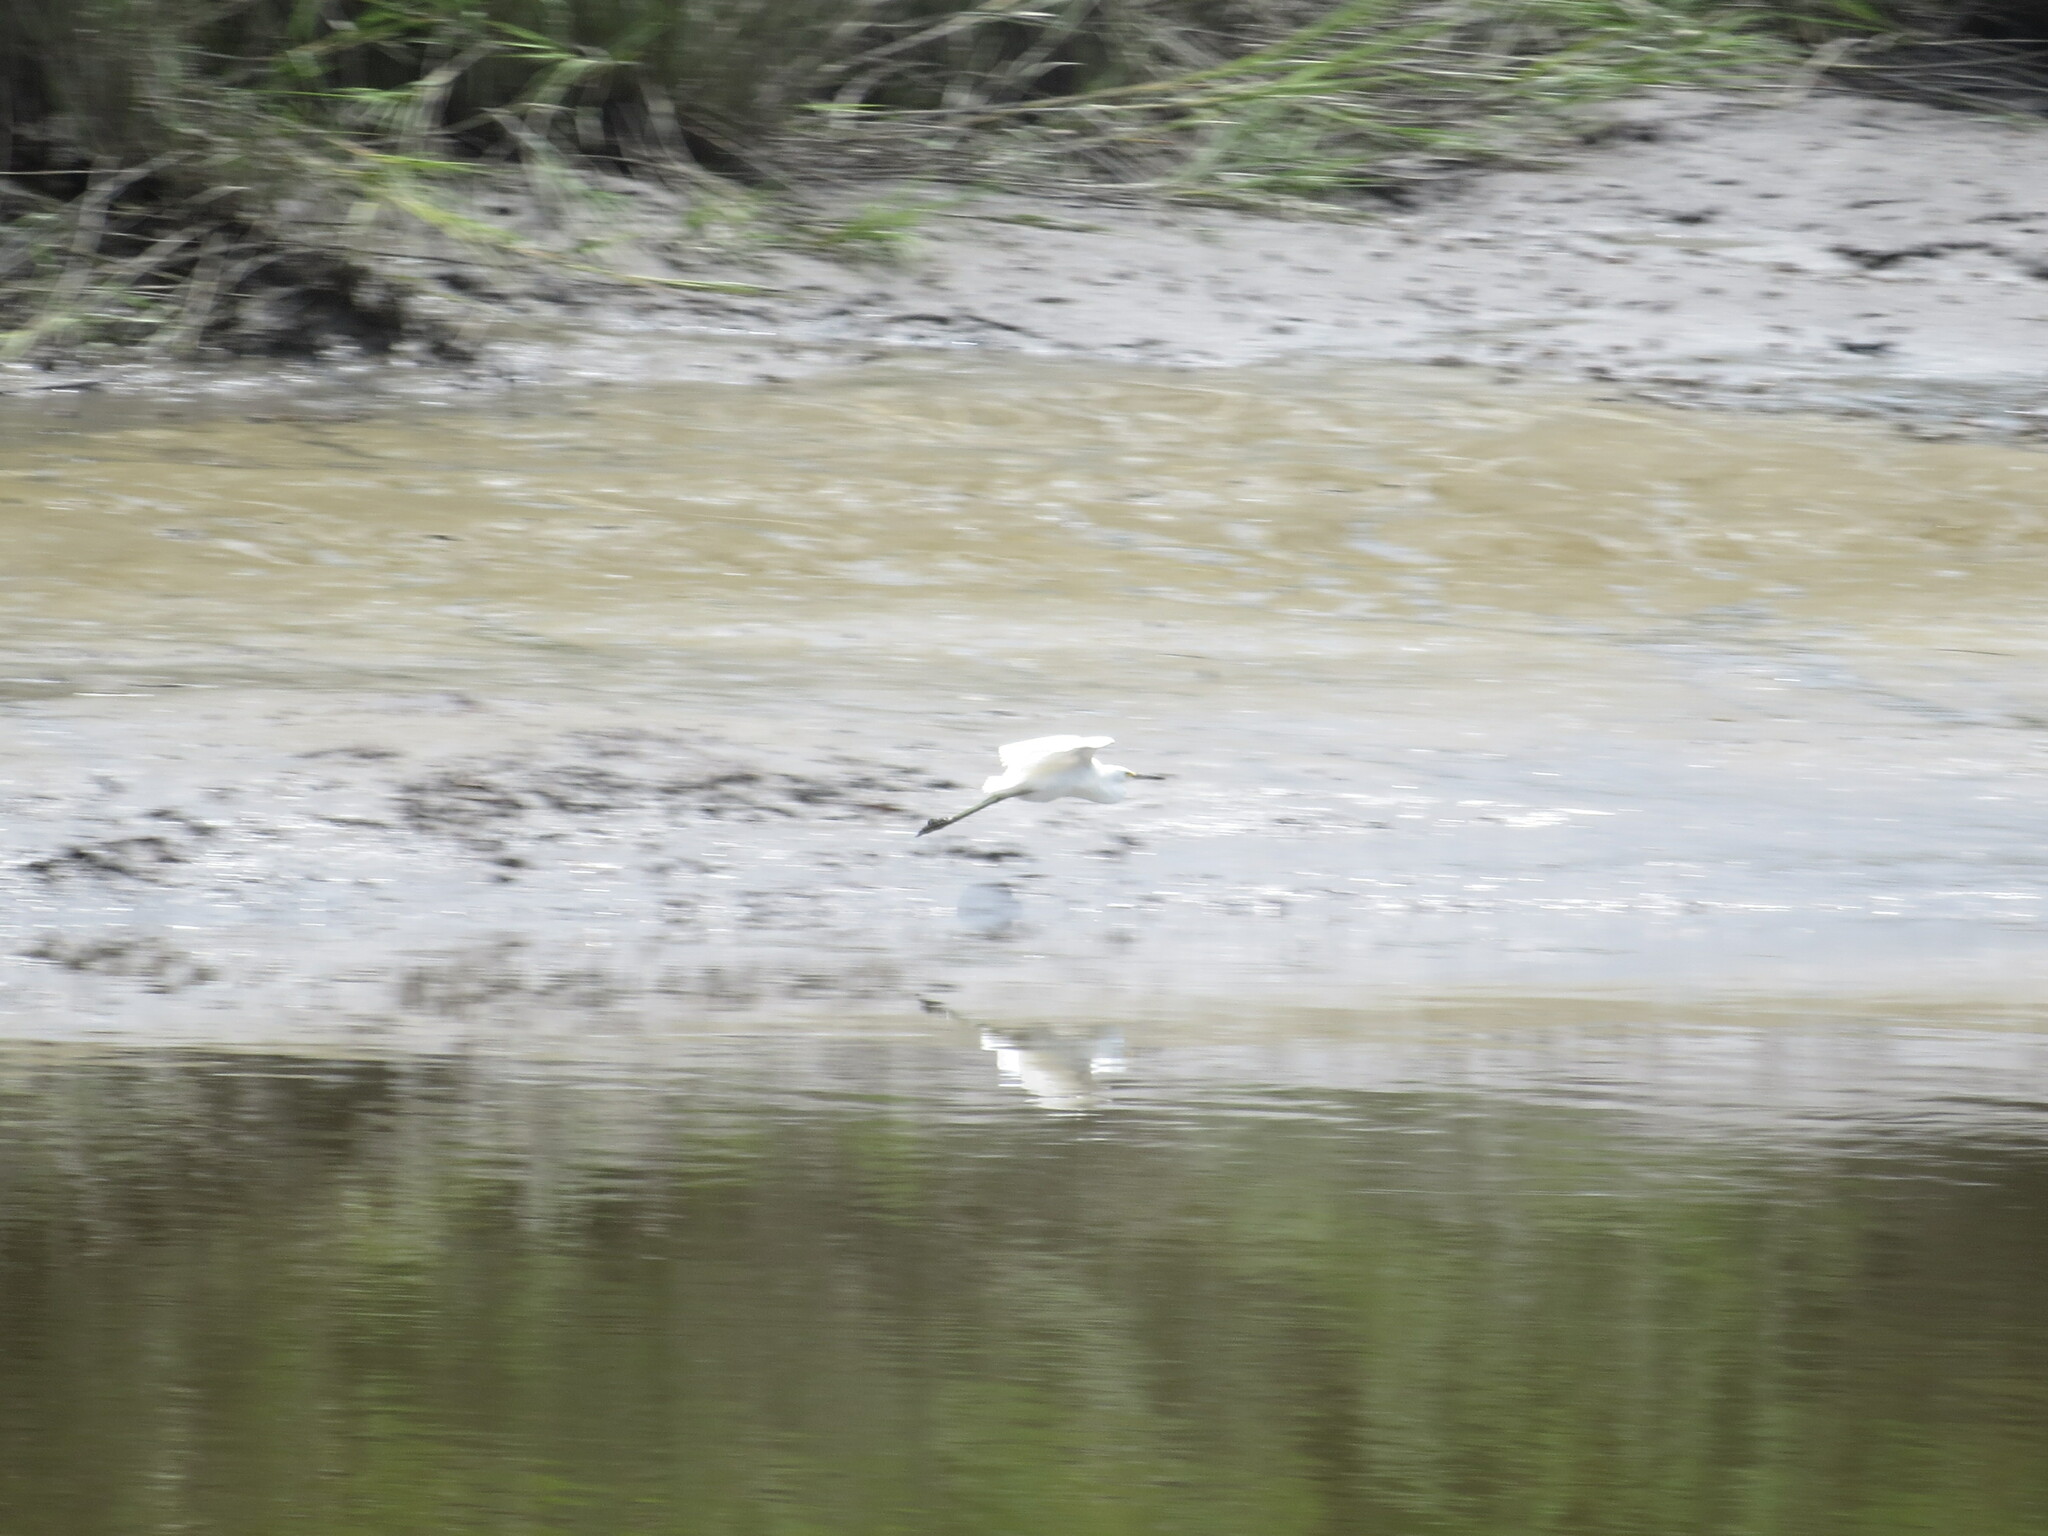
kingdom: Animalia
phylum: Chordata
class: Aves
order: Pelecaniformes
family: Ardeidae
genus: Egretta
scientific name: Egretta thula
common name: Snowy egret
